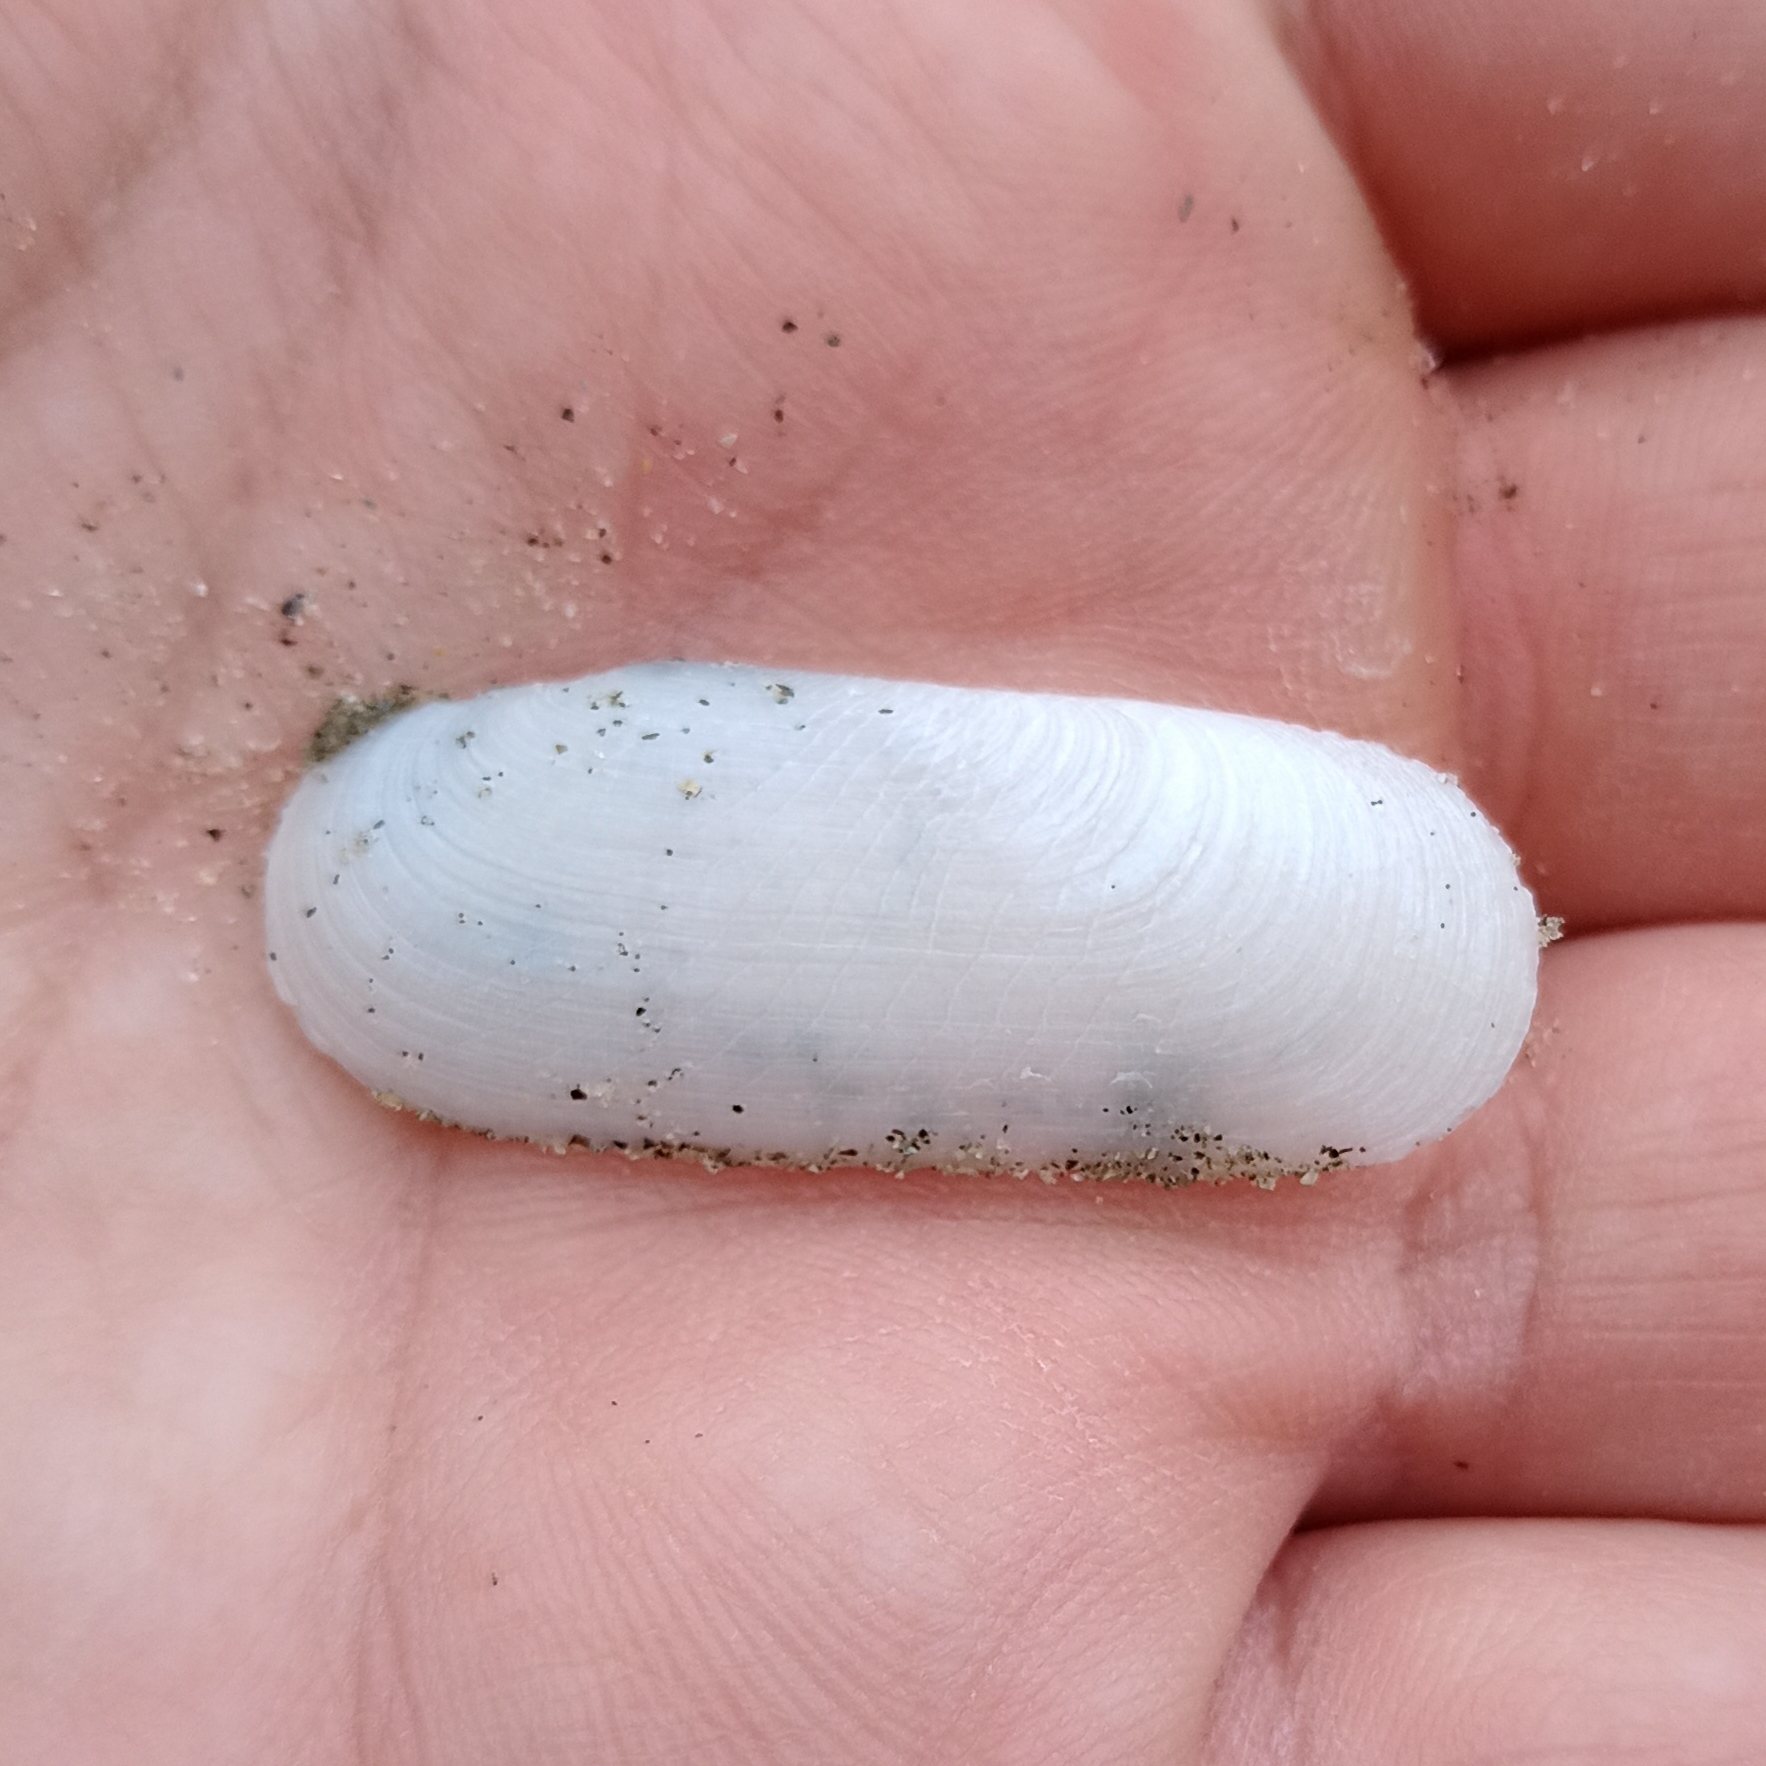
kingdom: Animalia
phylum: Mollusca
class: Bivalvia
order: Cardiida
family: Solecurtidae
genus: Tagelus
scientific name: Tagelus plebeius
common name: Stout tagelus
